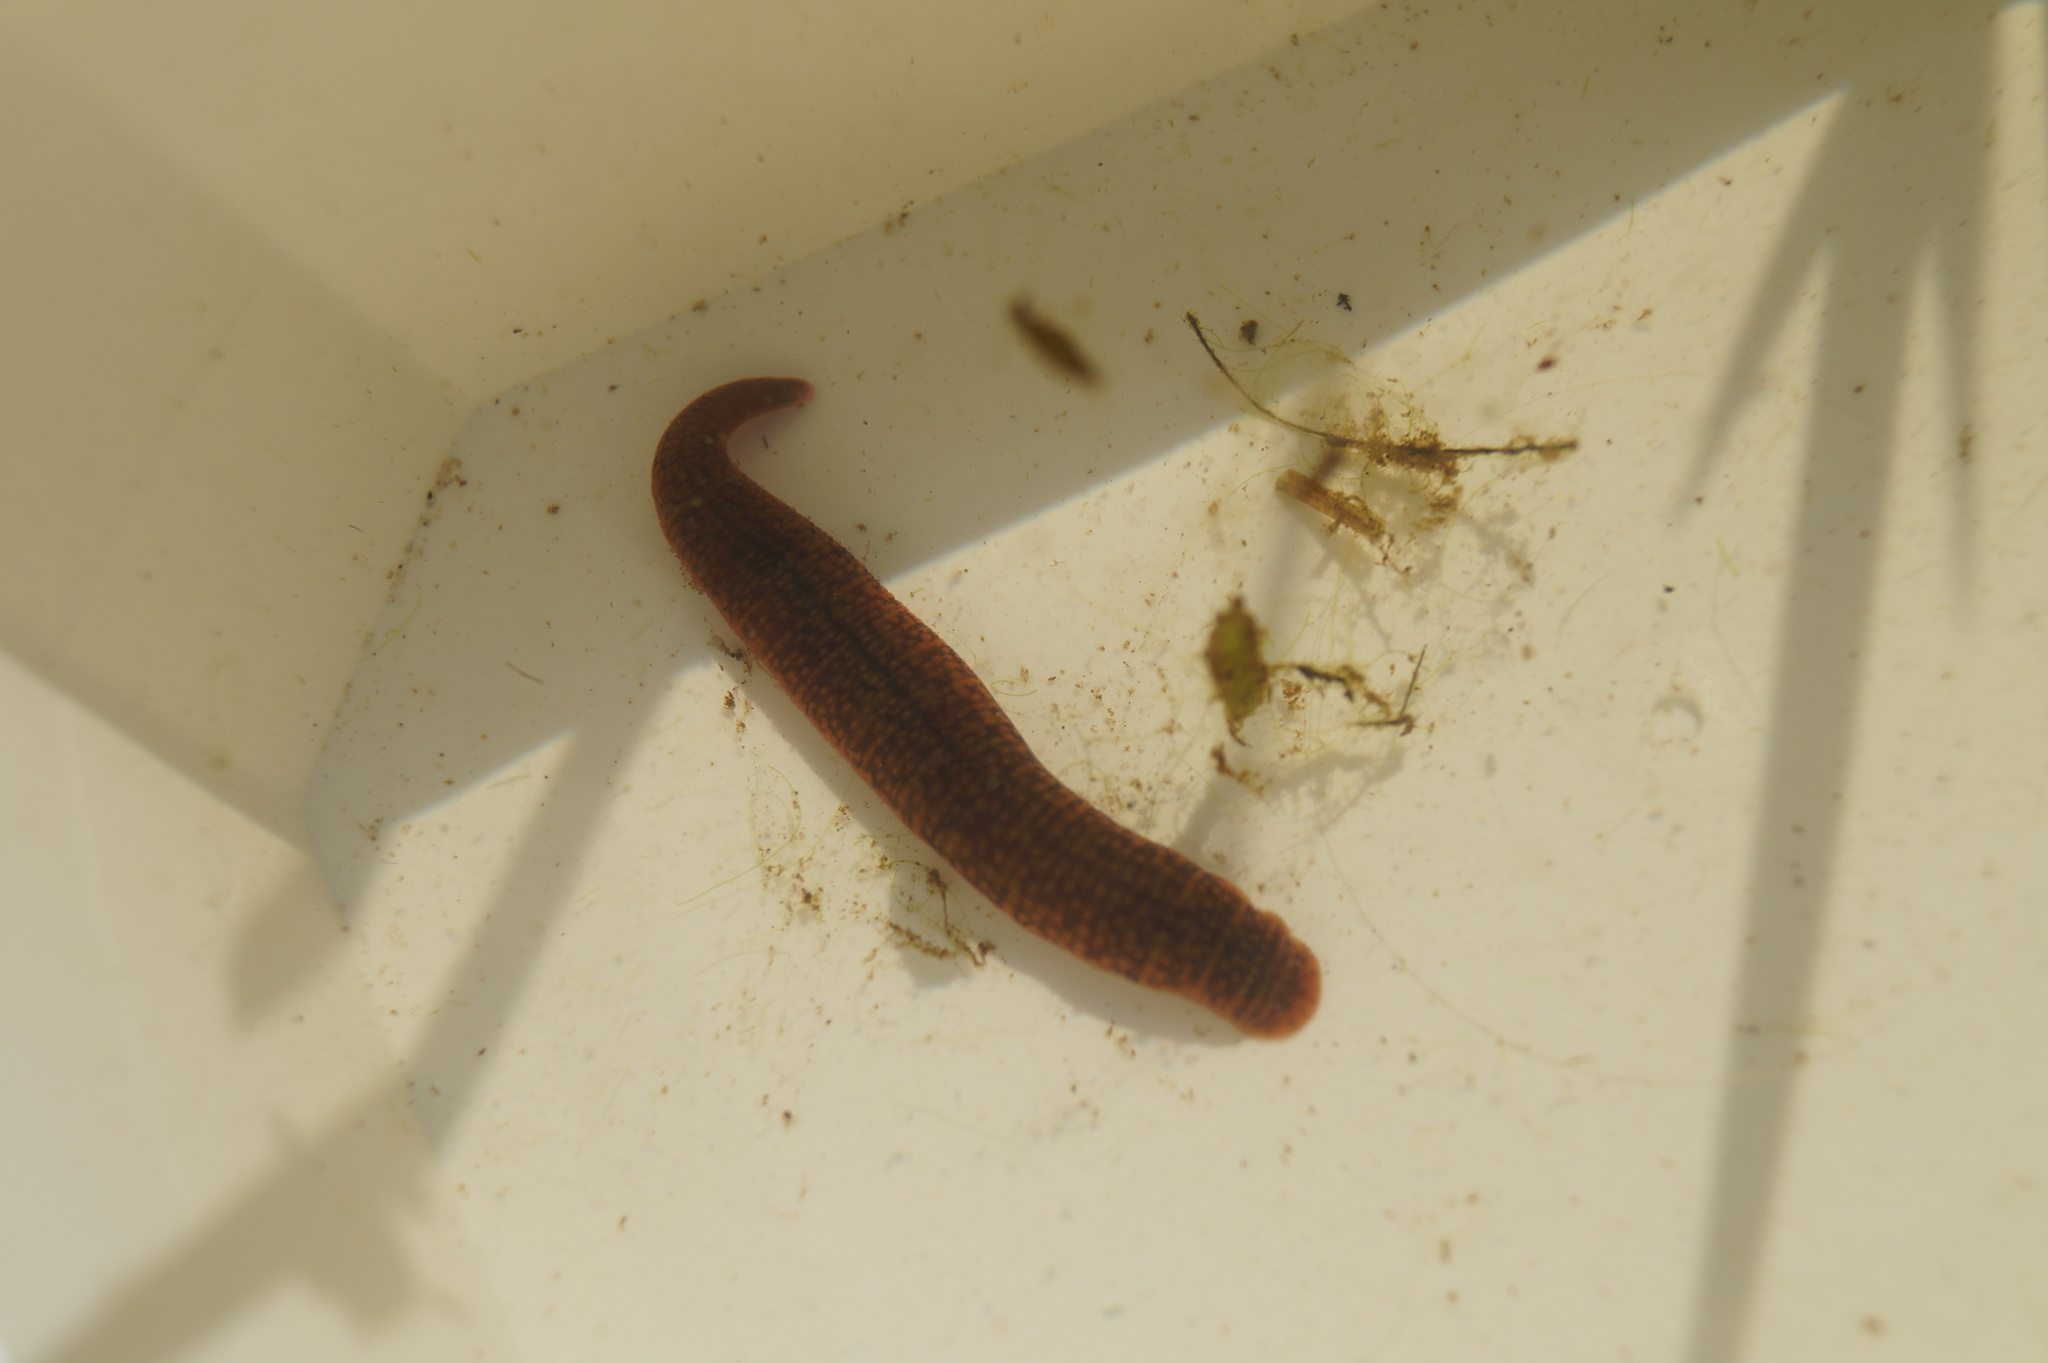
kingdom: Animalia
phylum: Annelida
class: Clitellata
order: Arhynchobdellida
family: Erpobdellidae
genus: Erpobdella
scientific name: Erpobdella octoculata
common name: Leeches
